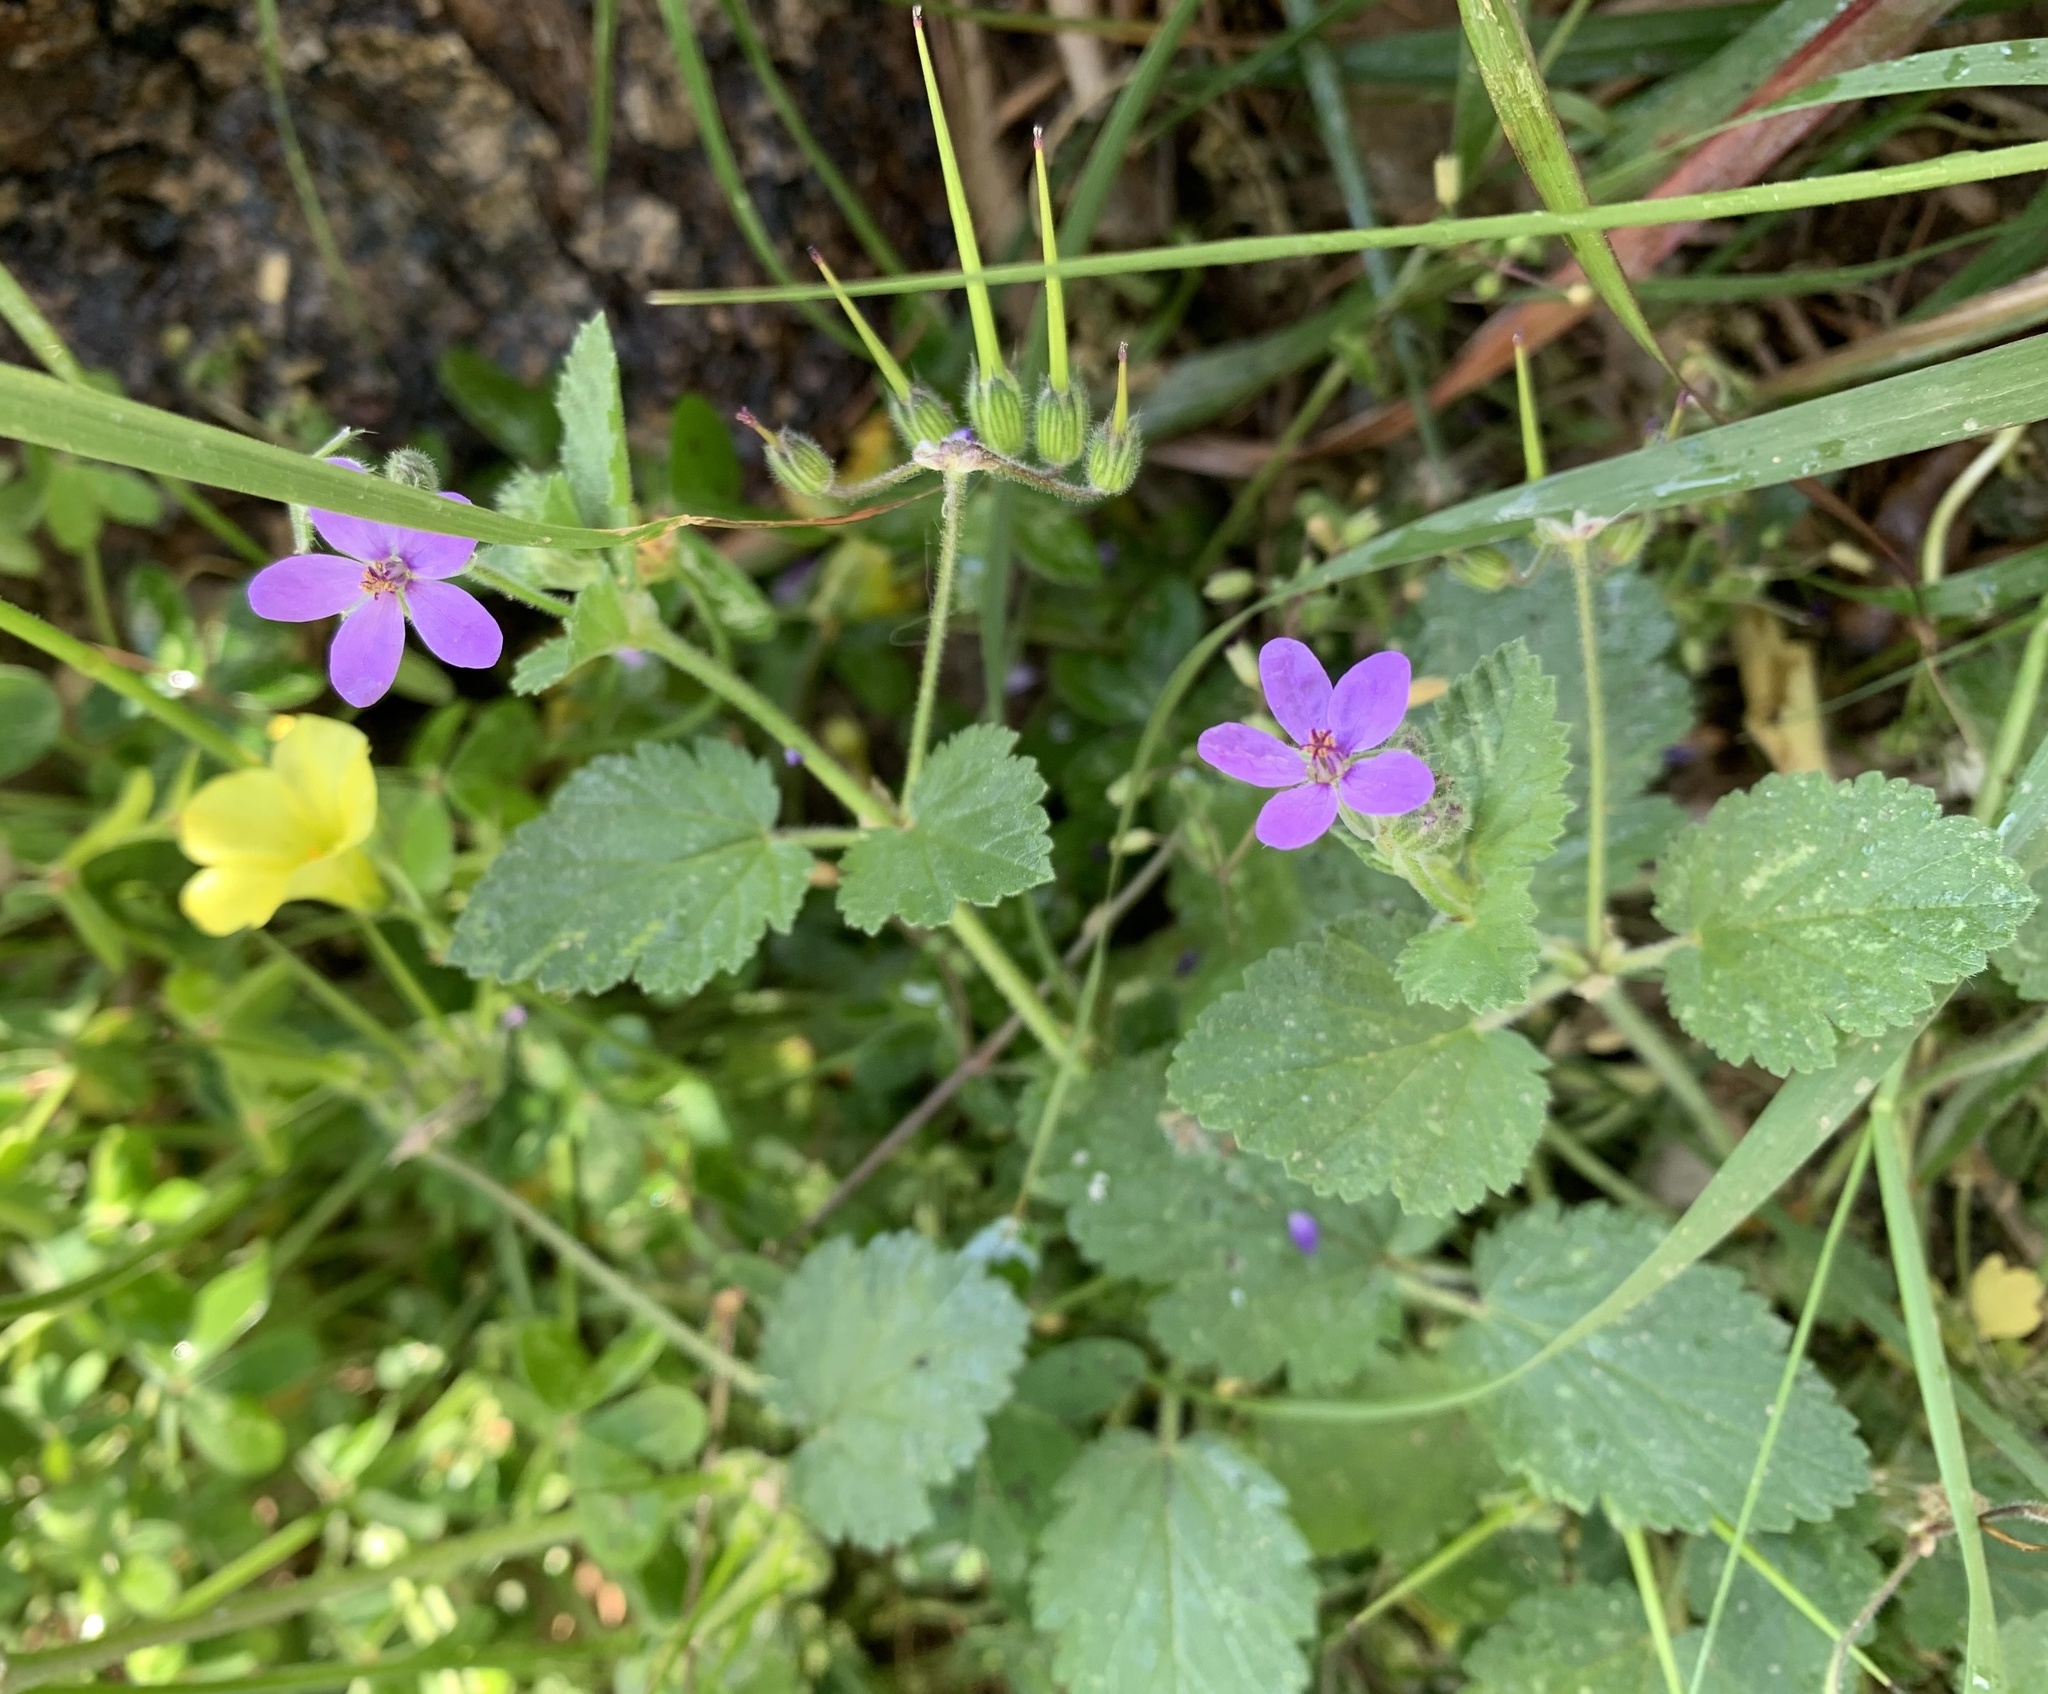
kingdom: Plantae
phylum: Tracheophyta
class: Magnoliopsida
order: Geraniales
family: Geraniaceae
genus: Erodium
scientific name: Erodium malacoides
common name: Soft stork's-bill
